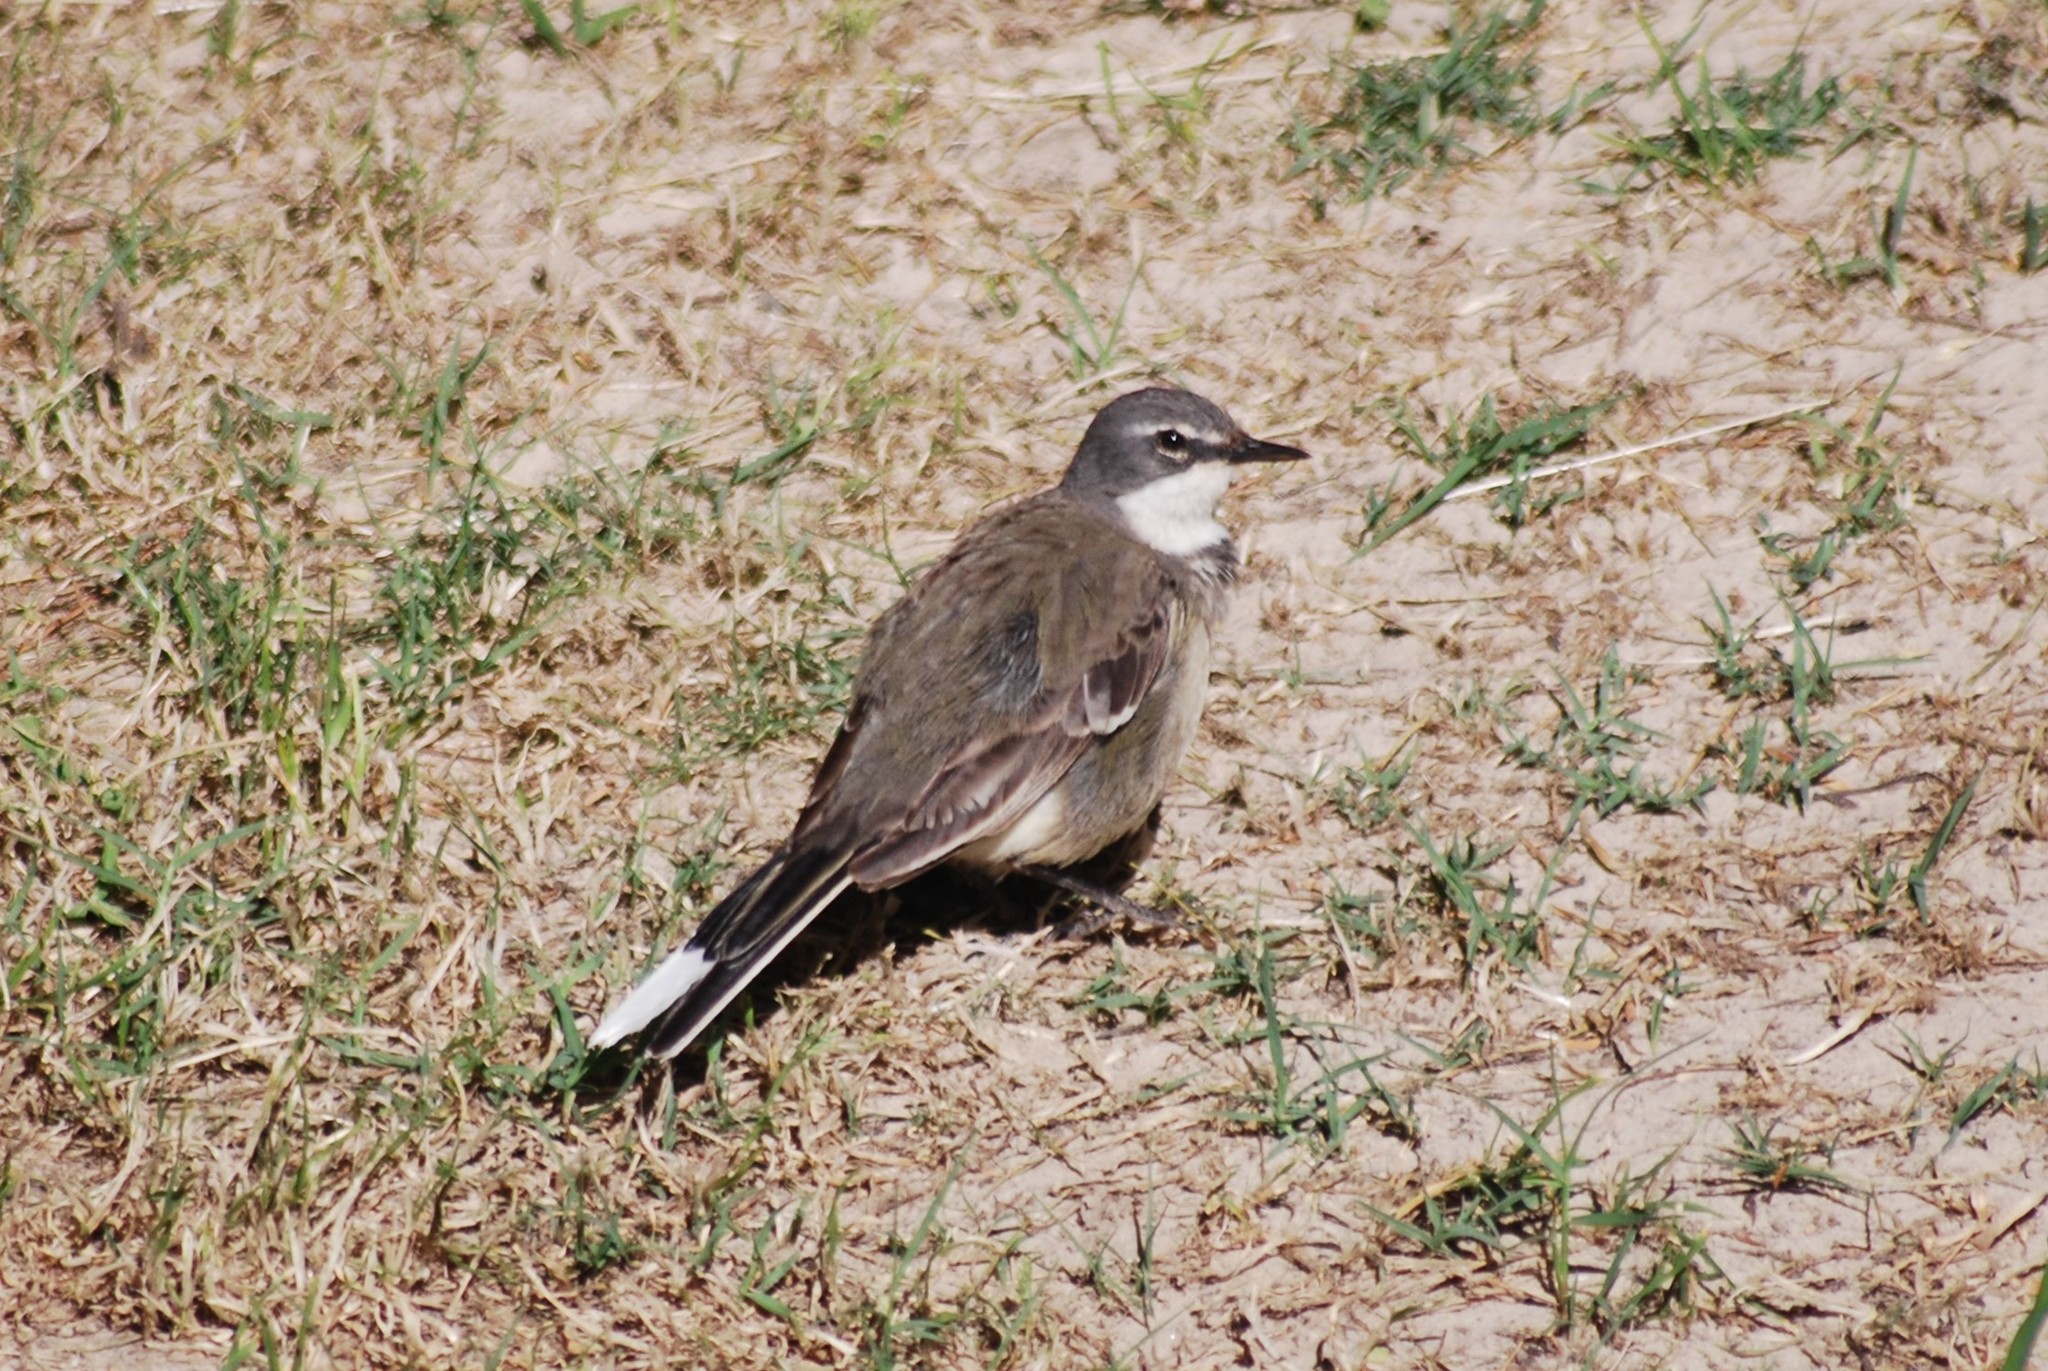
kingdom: Animalia
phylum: Chordata
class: Aves
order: Passeriformes
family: Motacillidae
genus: Motacilla
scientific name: Motacilla capensis
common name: Cape wagtail
